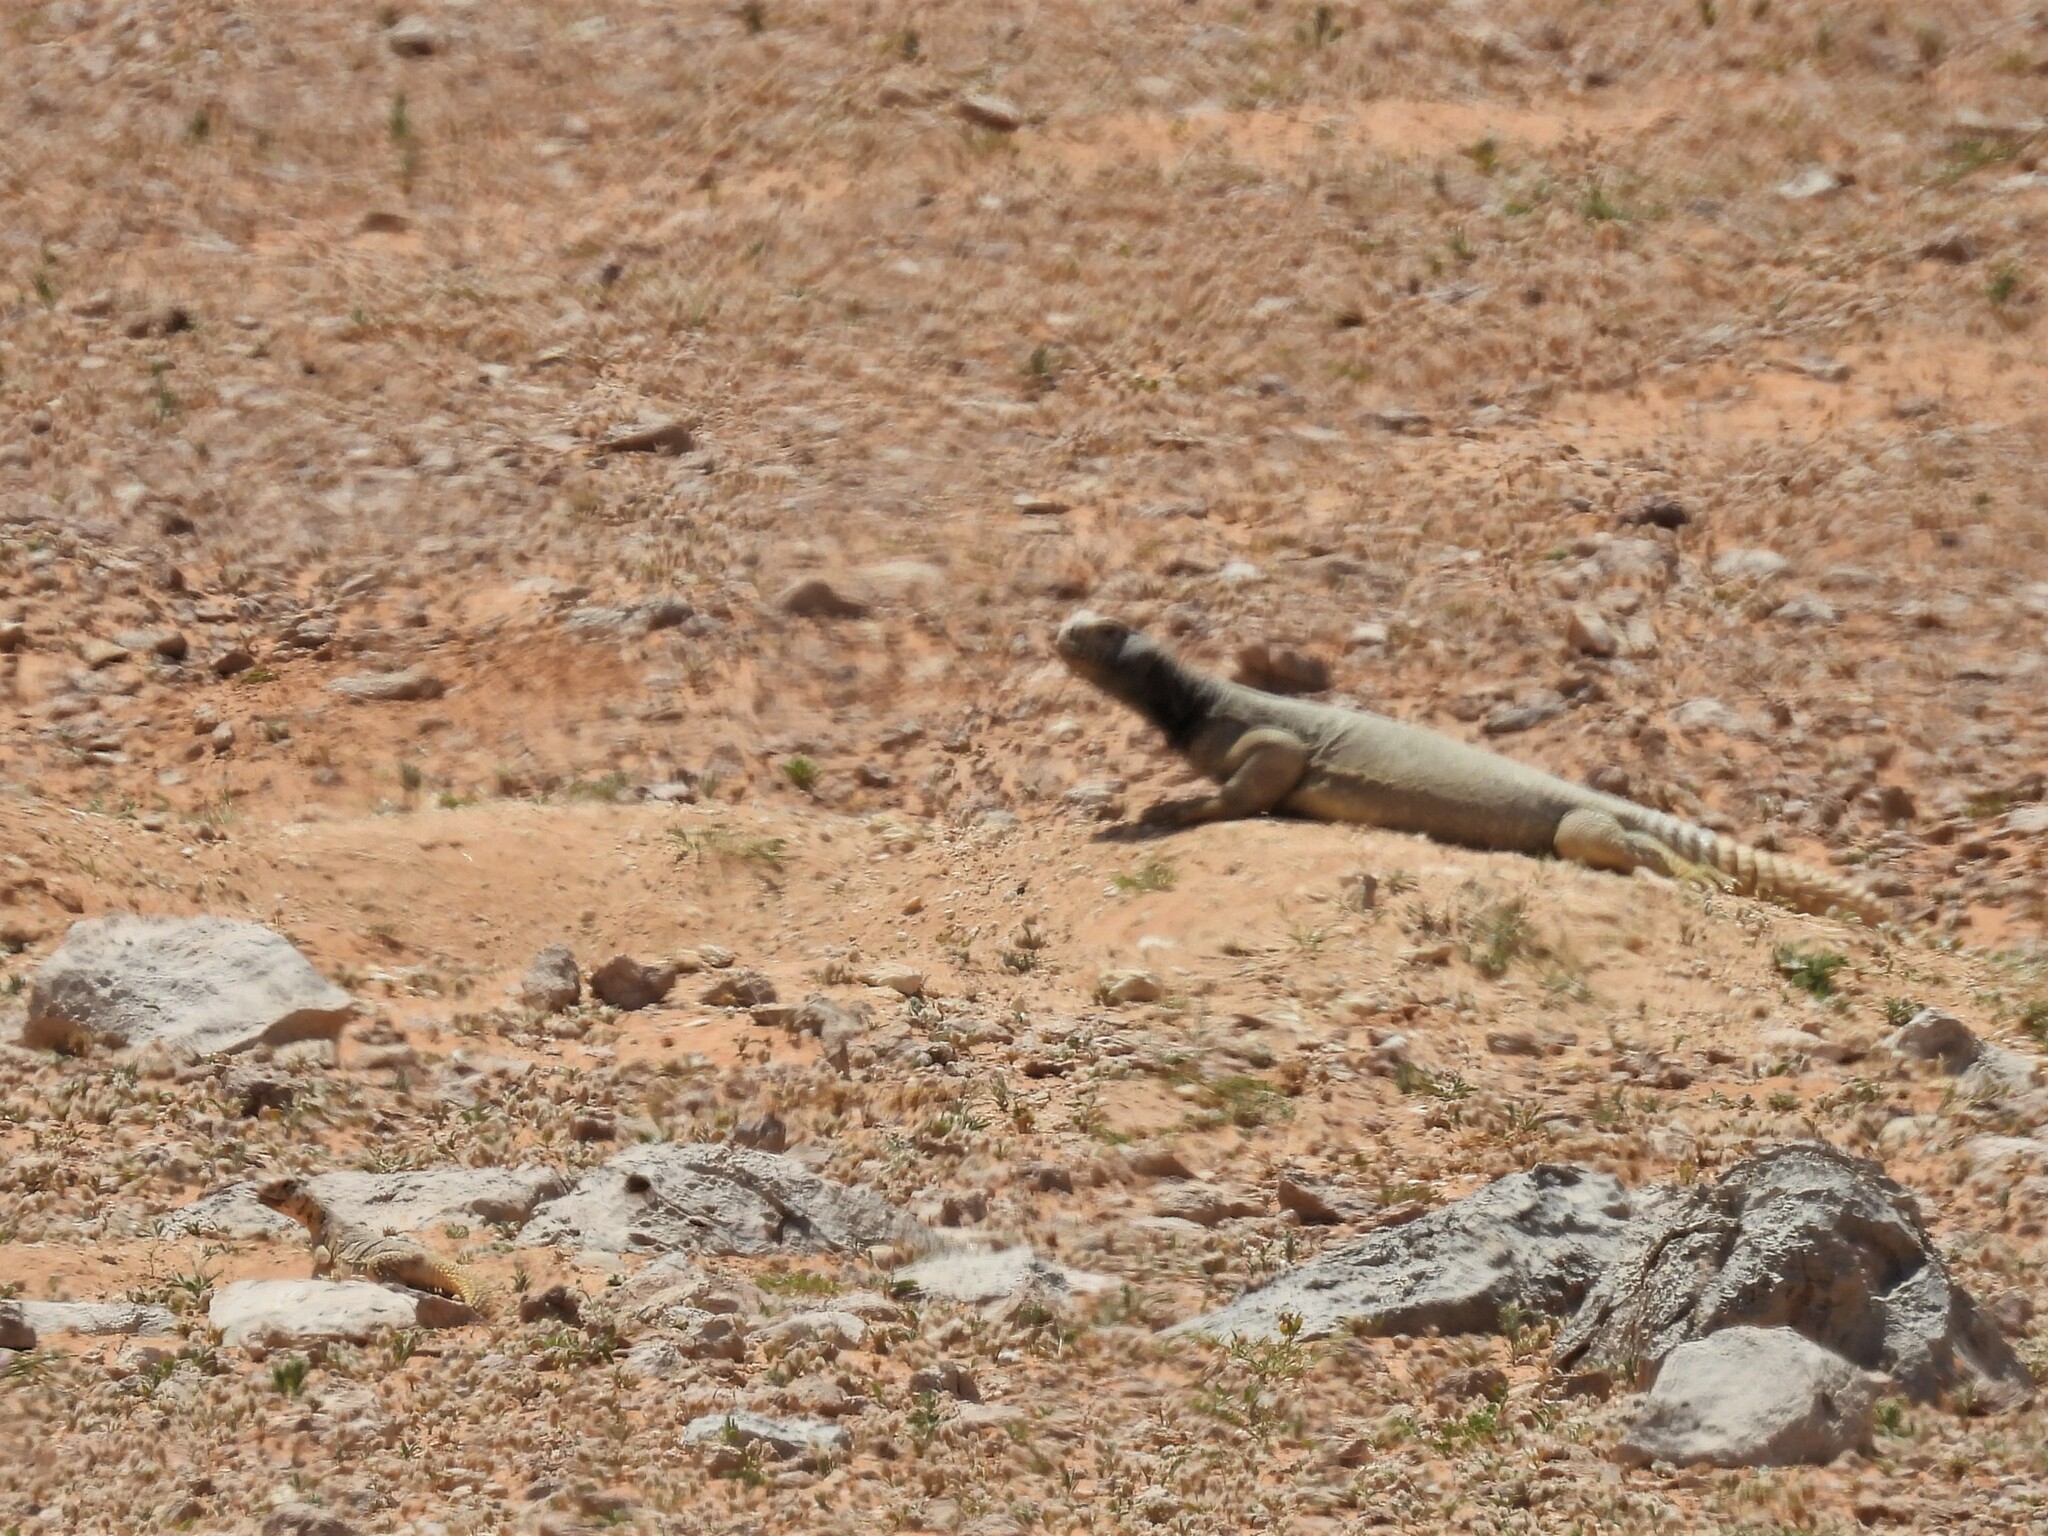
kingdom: Animalia
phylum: Chordata
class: Squamata
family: Agamidae
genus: Uromastyx
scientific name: Uromastyx aegyptia
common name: Egyptian mastigure
